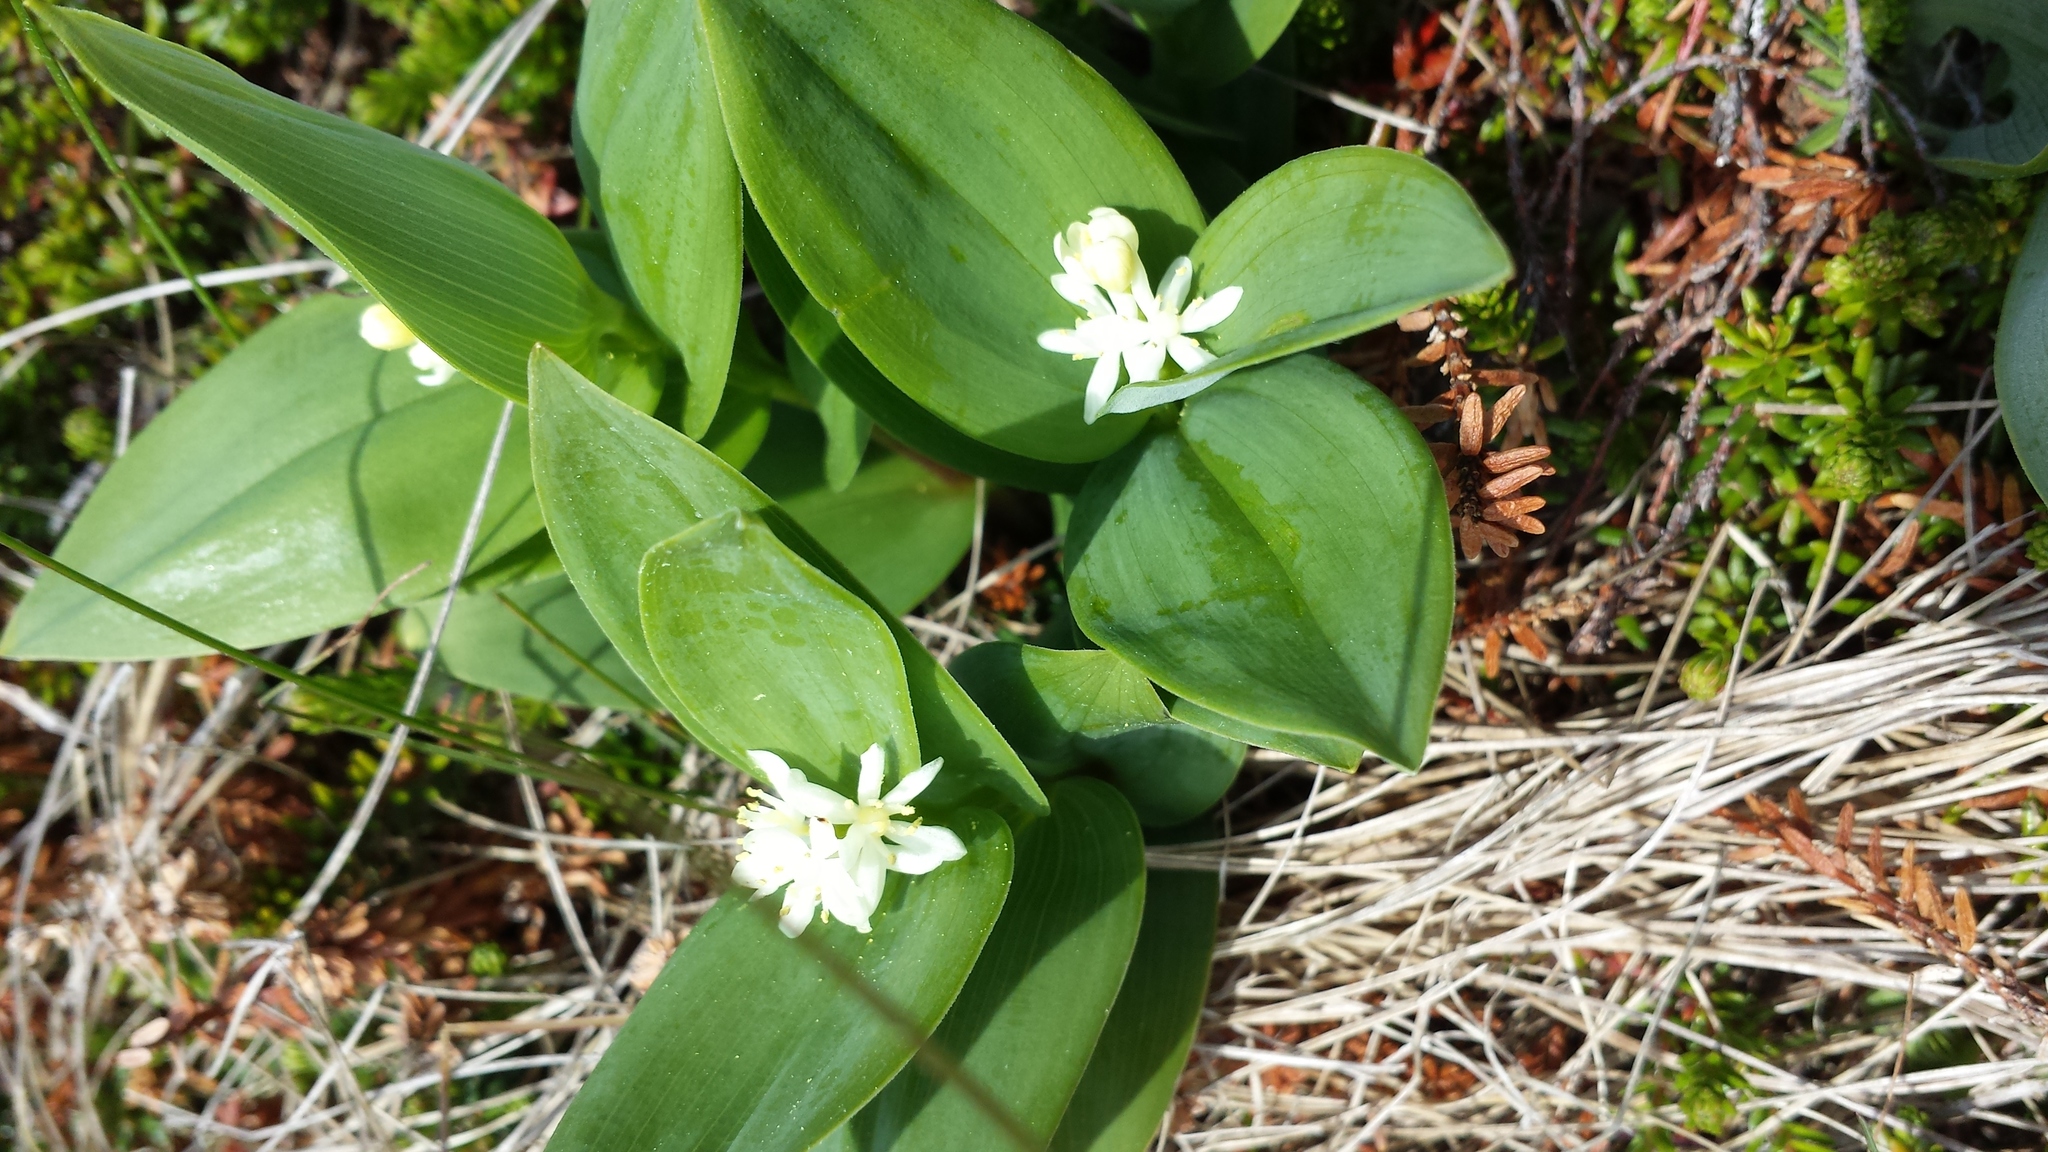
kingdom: Plantae
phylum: Tracheophyta
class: Liliopsida
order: Asparagales
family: Asparagaceae
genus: Maianthemum
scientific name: Maianthemum stellatum
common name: Little false solomon's seal
